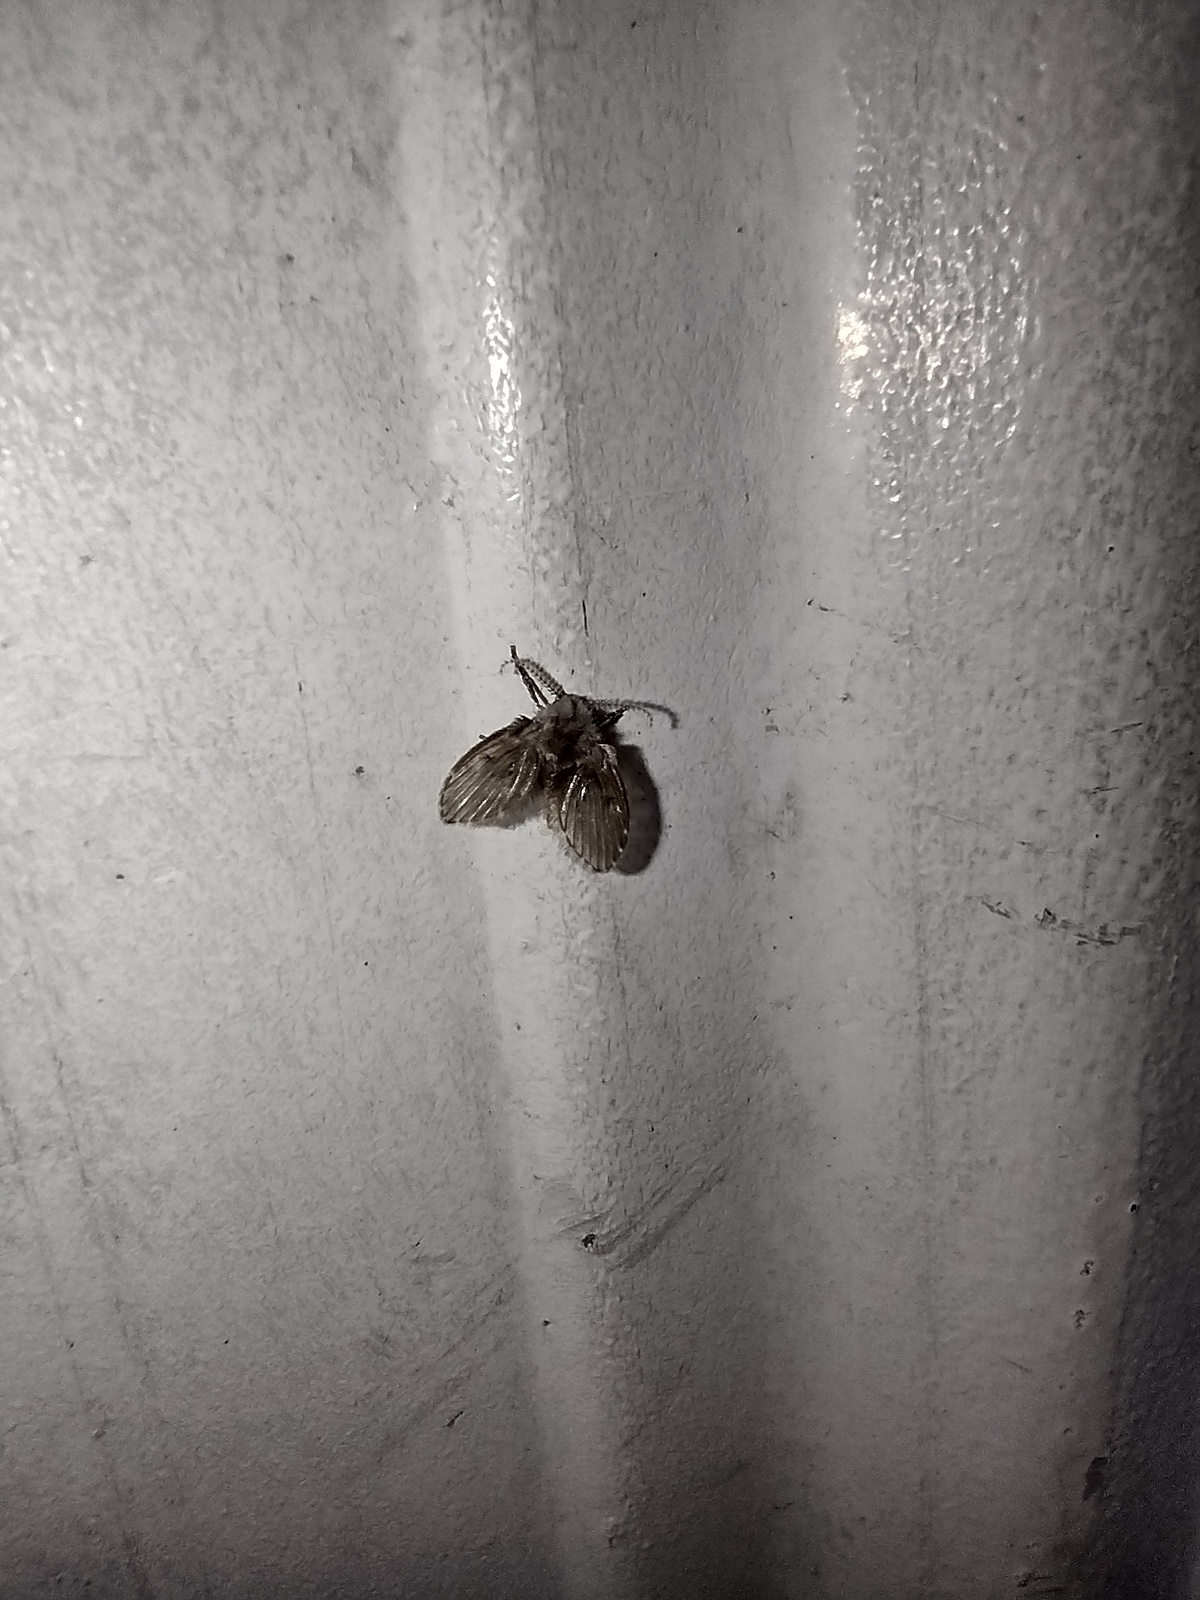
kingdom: Animalia
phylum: Arthropoda
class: Insecta
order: Diptera
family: Psychodidae
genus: Clogmia
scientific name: Clogmia albipunctatus
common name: White-spotted moth fly
